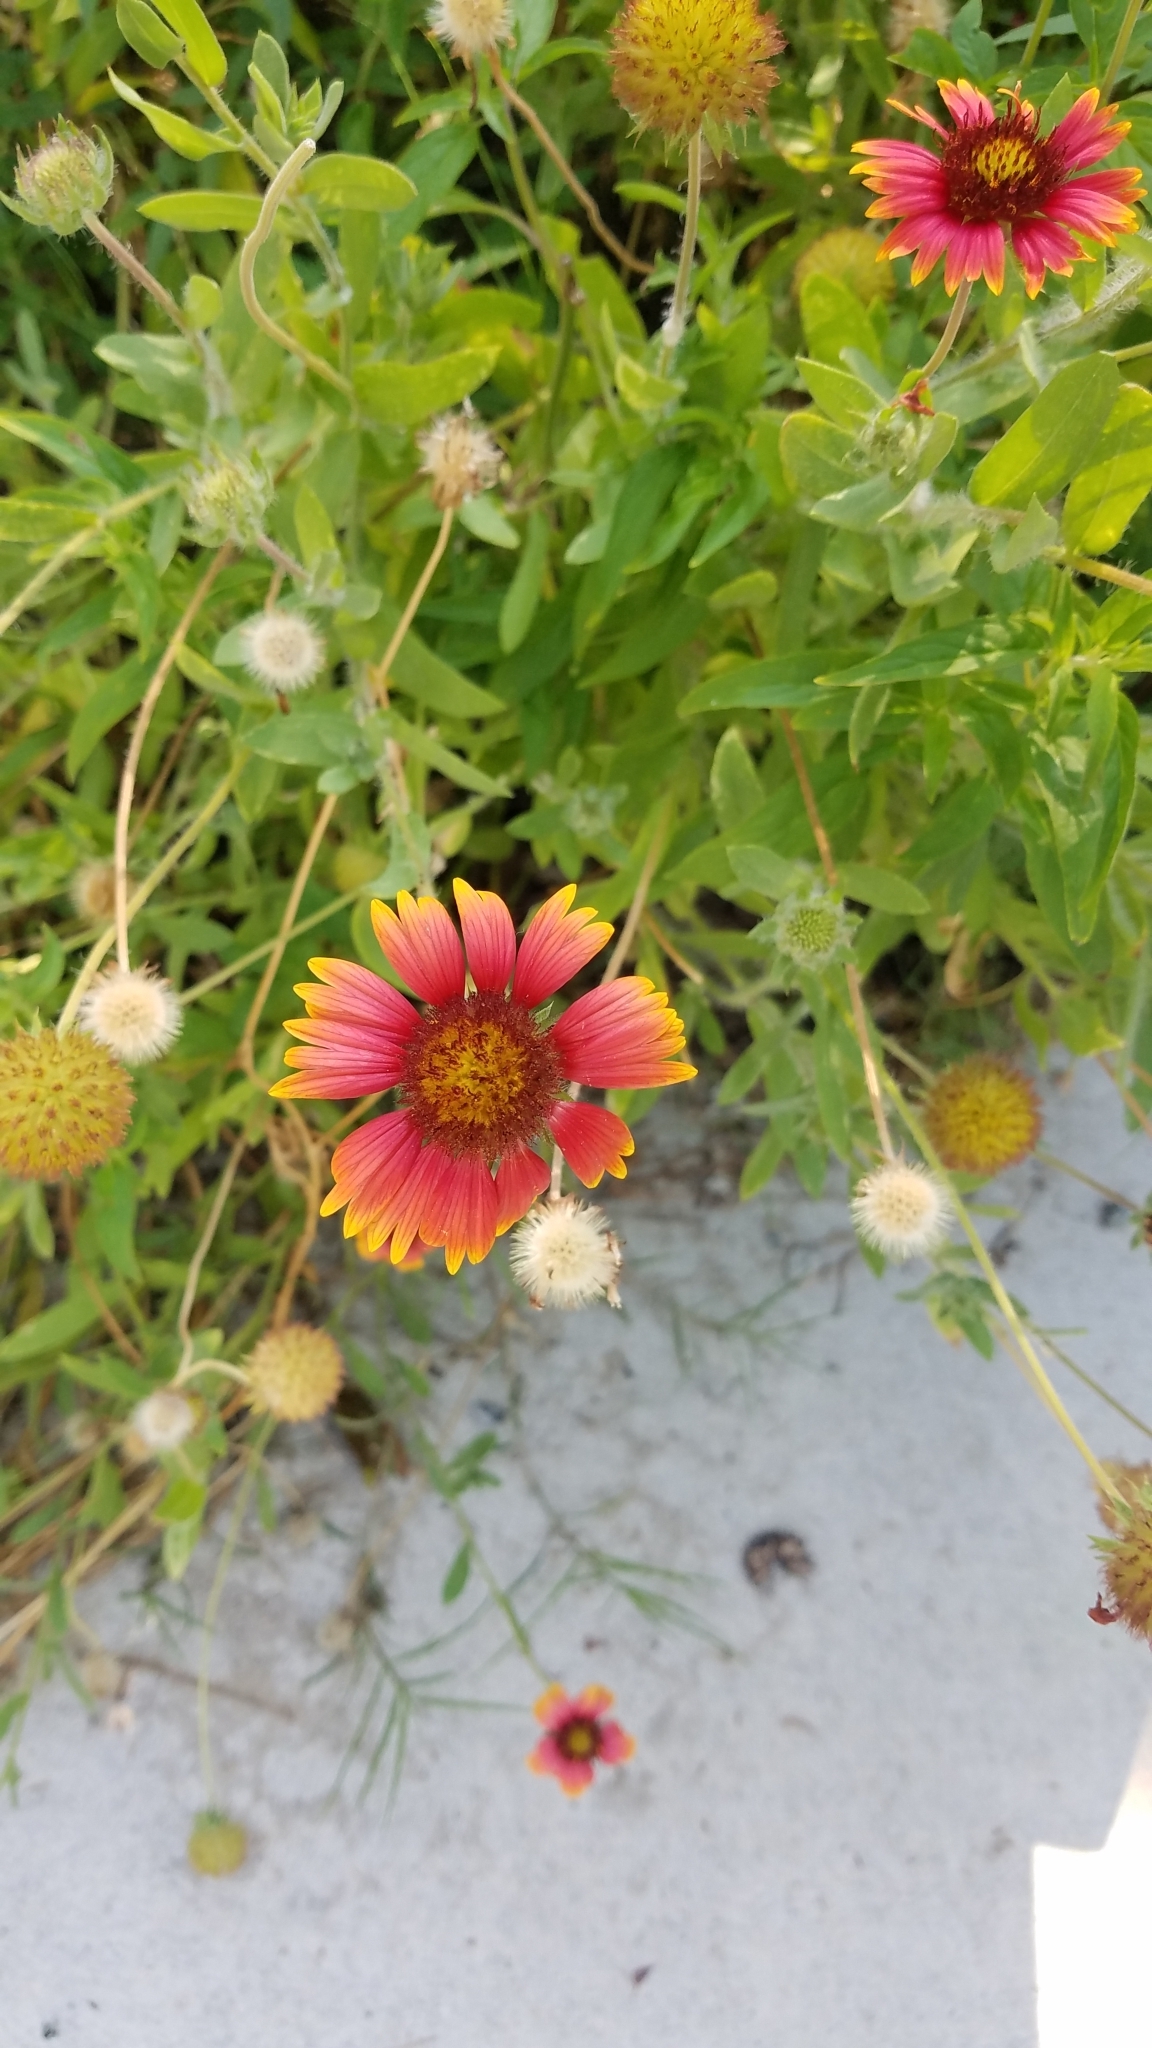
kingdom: Plantae
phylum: Tracheophyta
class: Magnoliopsida
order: Asterales
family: Asteraceae
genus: Gaillardia
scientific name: Gaillardia pulchella
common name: Firewheel
